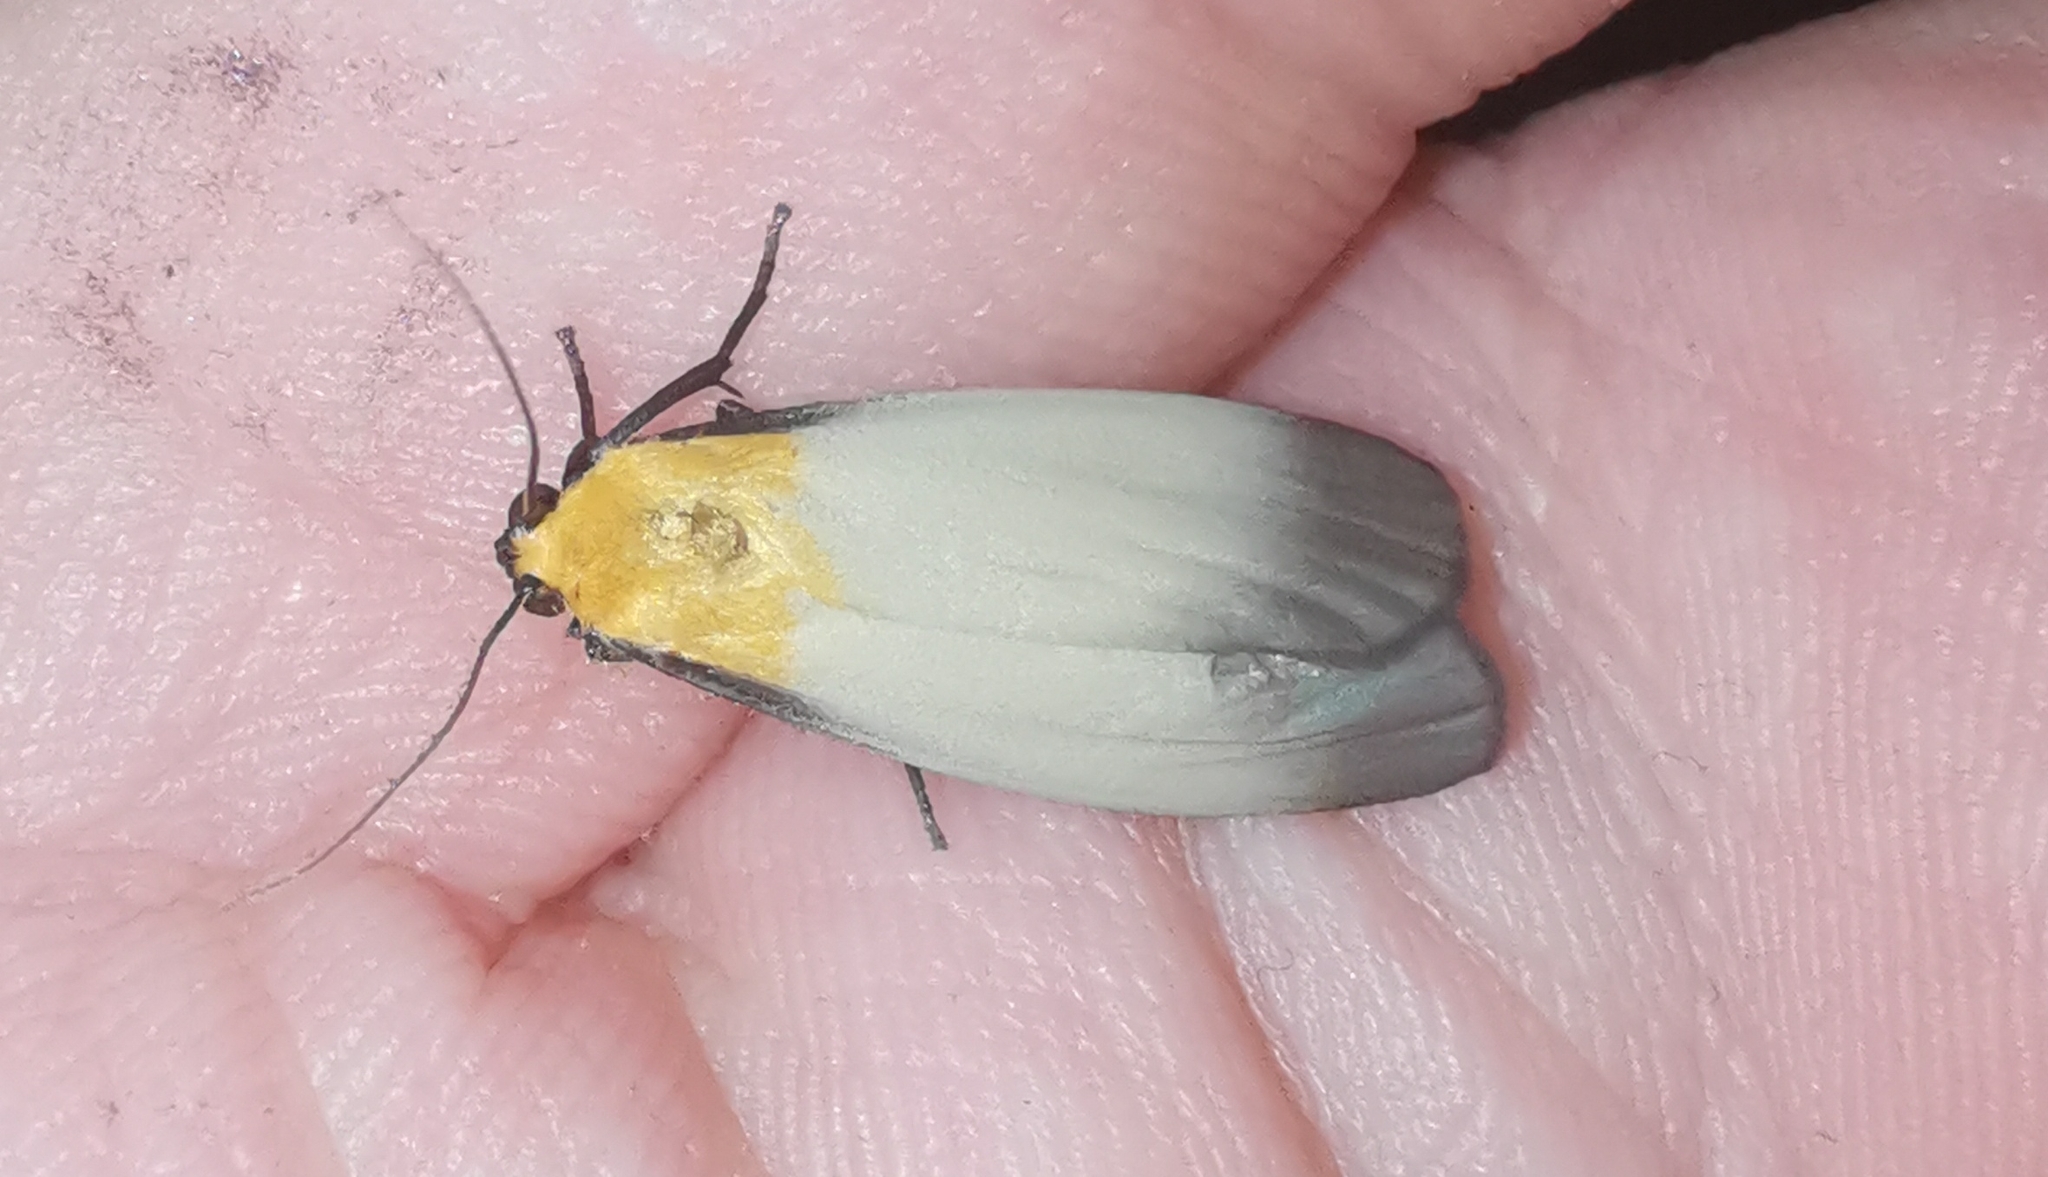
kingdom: Animalia
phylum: Arthropoda
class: Insecta
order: Lepidoptera
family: Erebidae
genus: Lithosia
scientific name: Lithosia quadra
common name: Four-spotted footman
